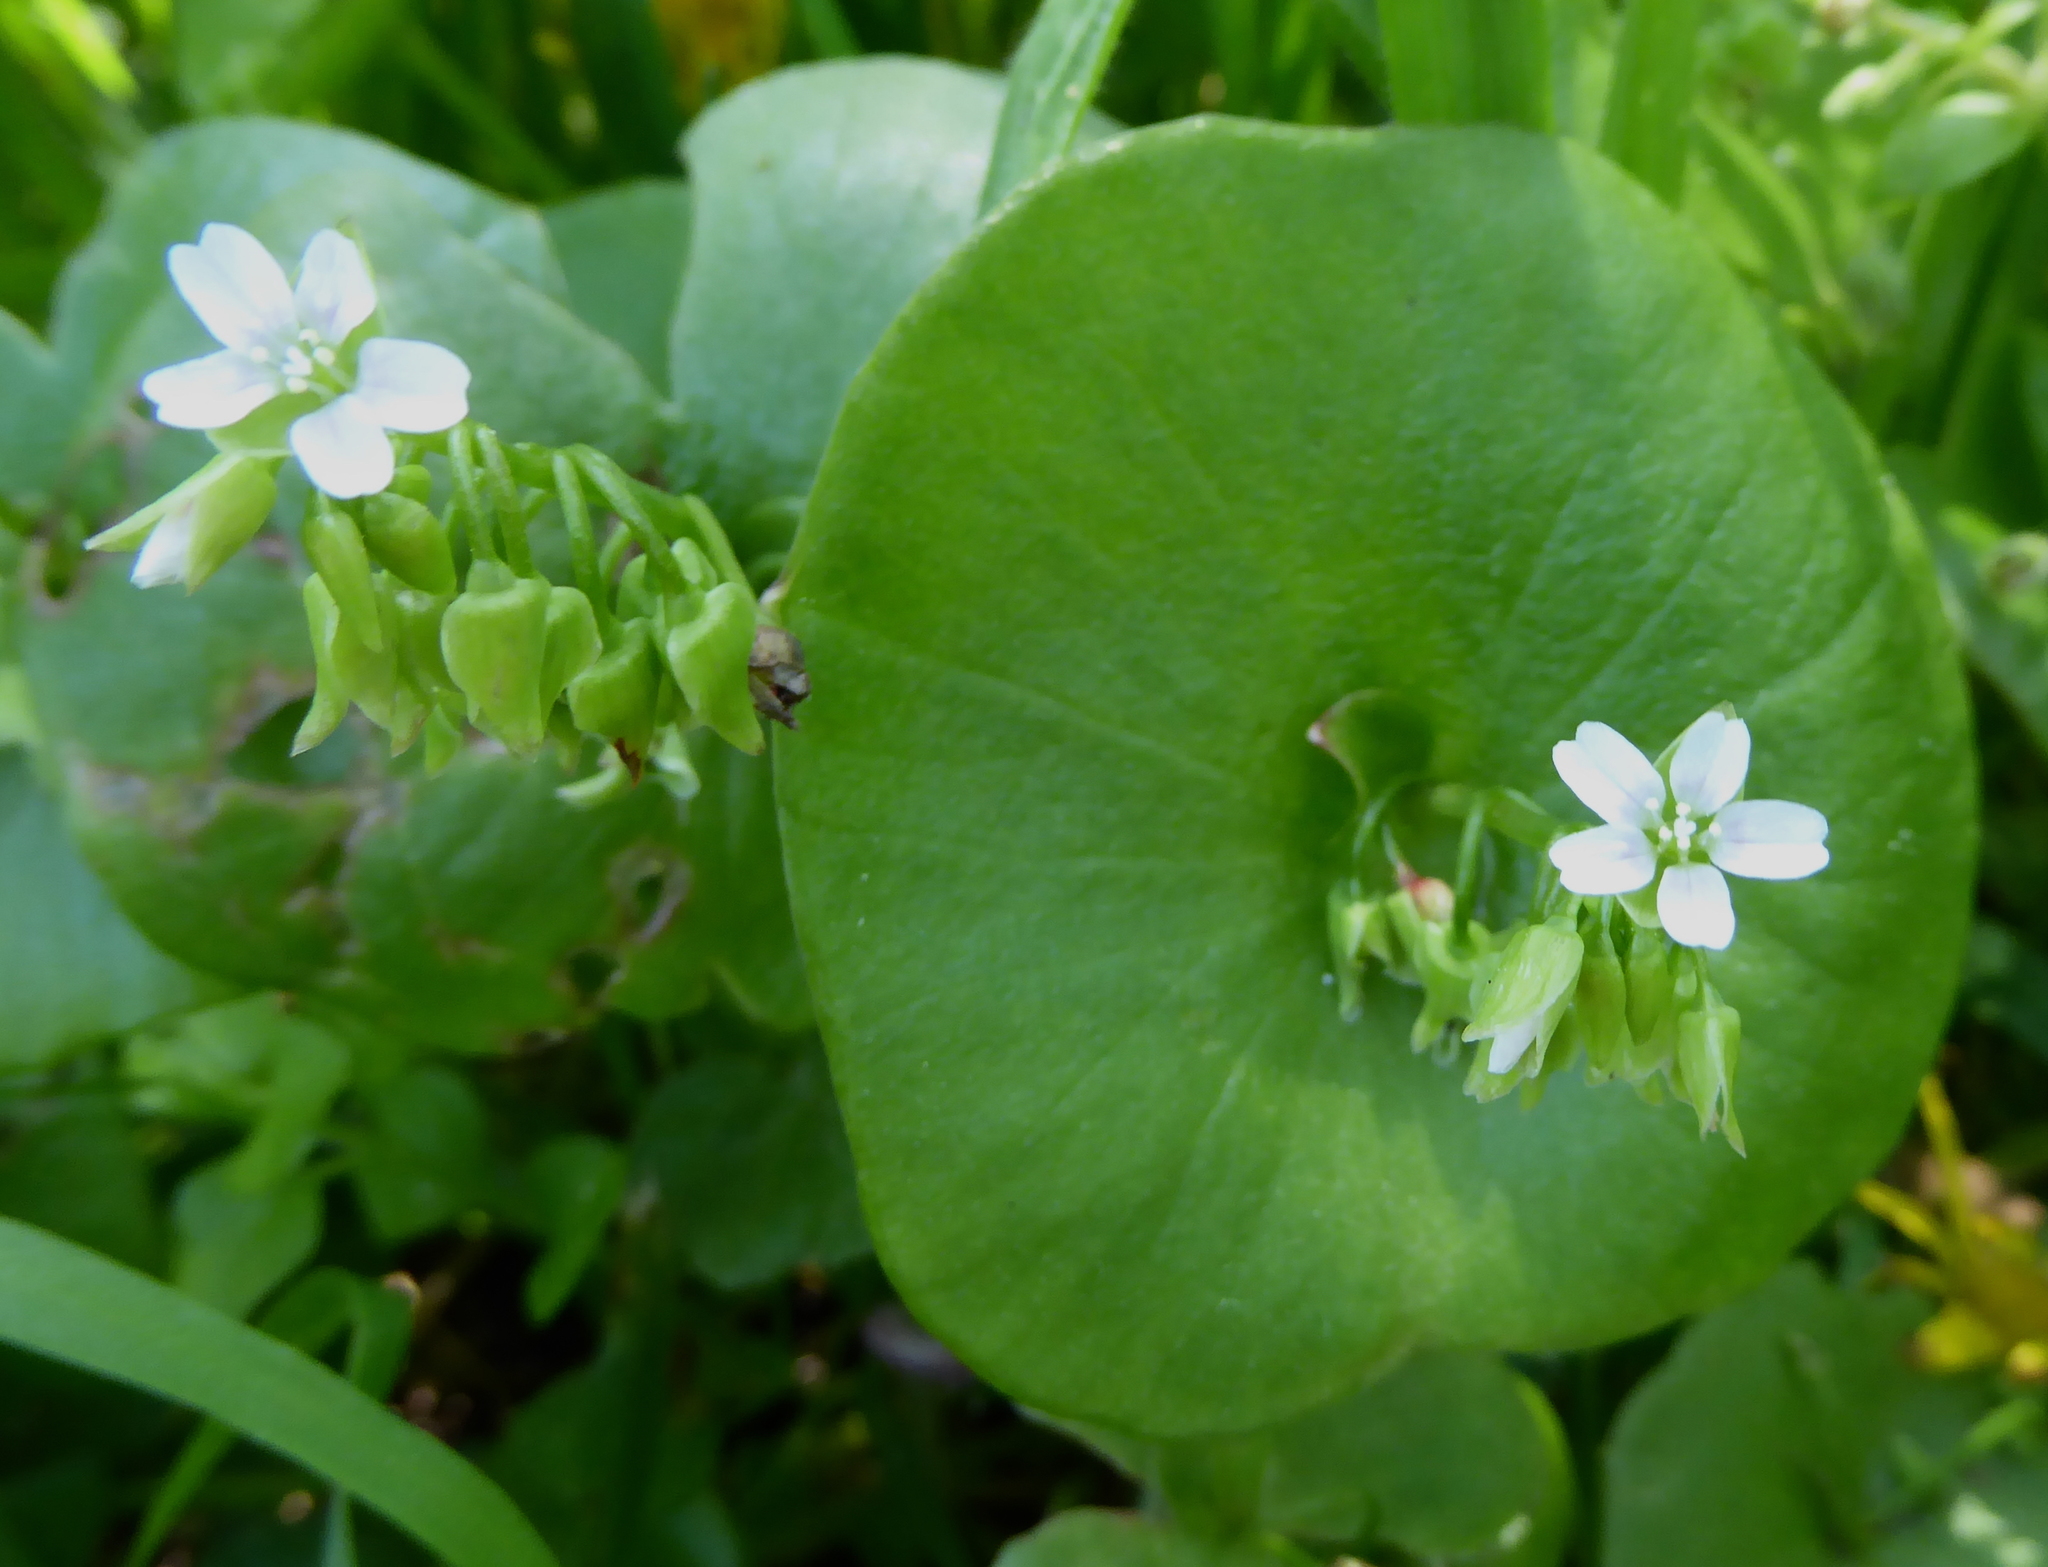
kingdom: Plantae
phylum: Tracheophyta
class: Magnoliopsida
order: Caryophyllales
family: Montiaceae
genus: Claytonia
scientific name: Claytonia perfoliata
